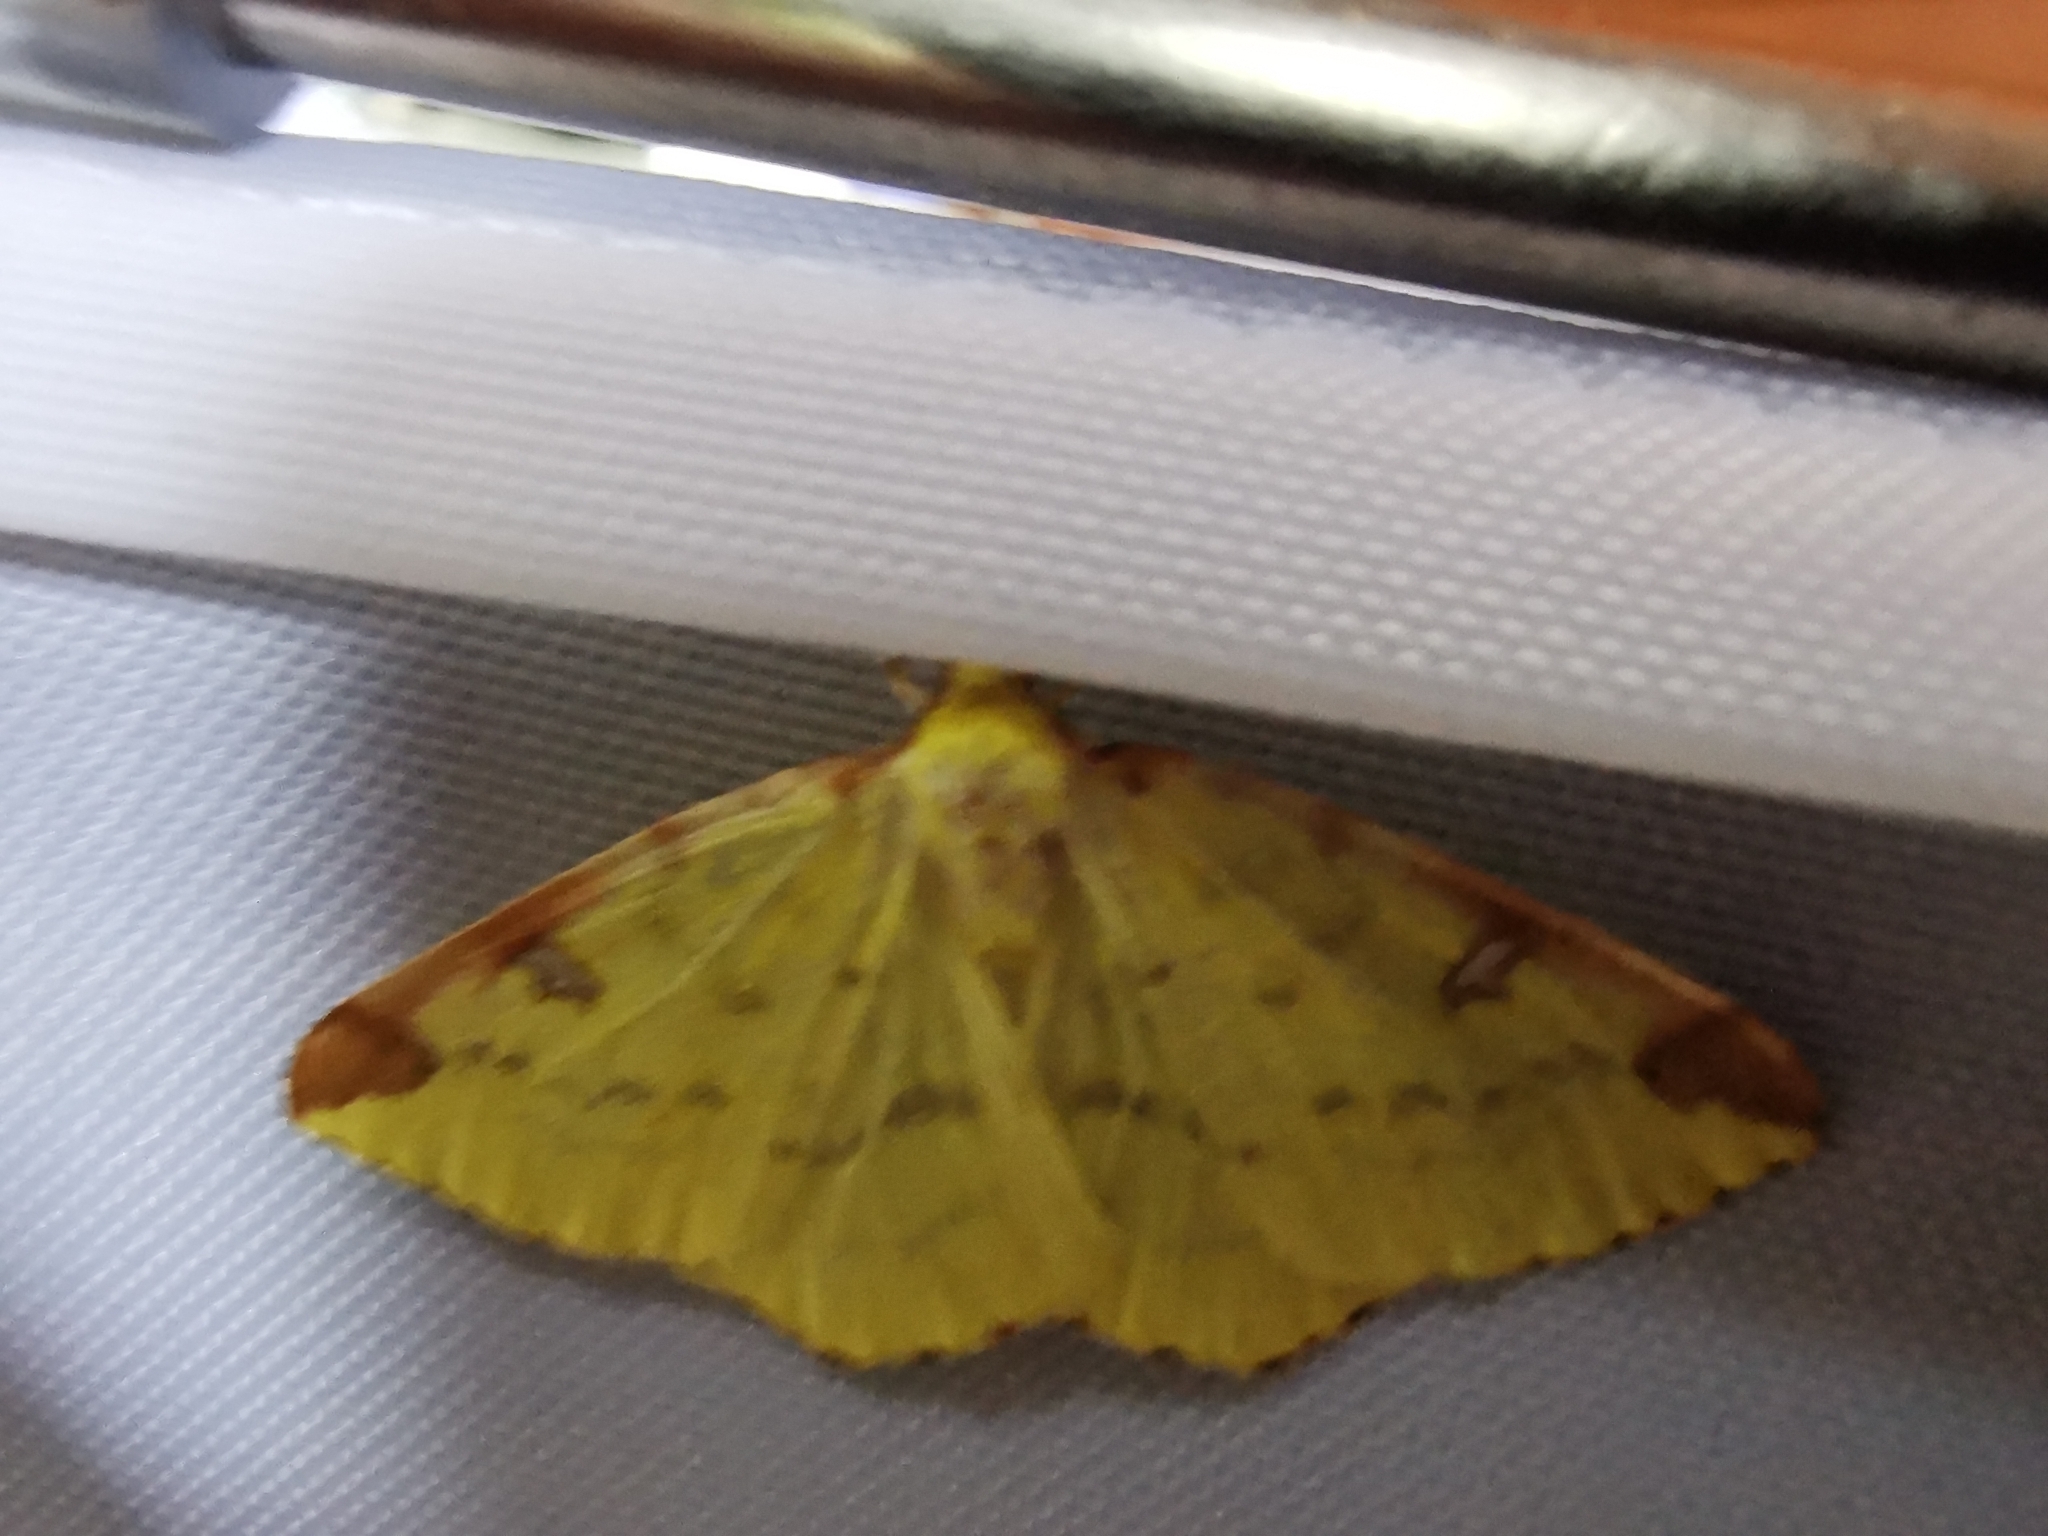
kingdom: Animalia
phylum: Arthropoda
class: Insecta
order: Lepidoptera
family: Geometridae
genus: Opisthograptis
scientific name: Opisthograptis luteolata
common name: Brimstone moth
